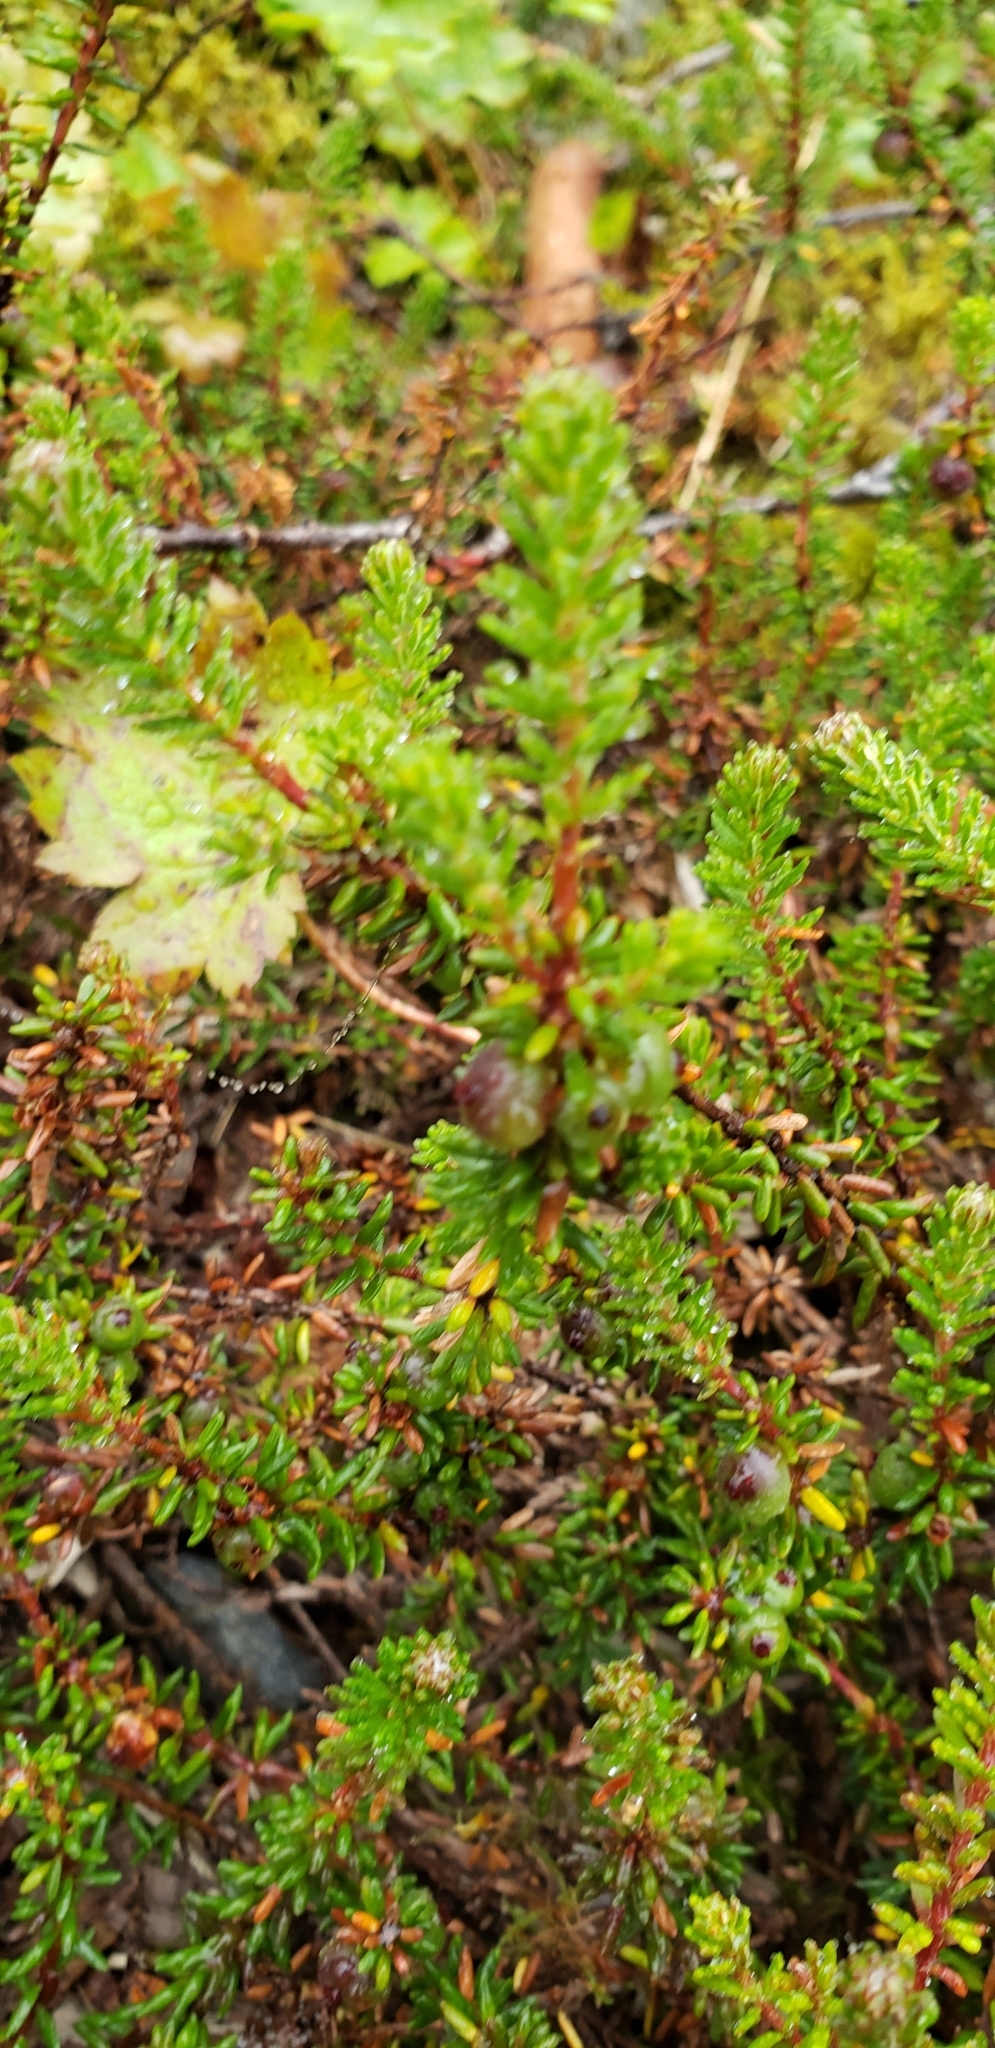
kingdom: Plantae
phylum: Tracheophyta
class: Magnoliopsida
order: Ericales
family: Ericaceae
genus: Empetrum
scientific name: Empetrum nigrum
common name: Black crowberry
